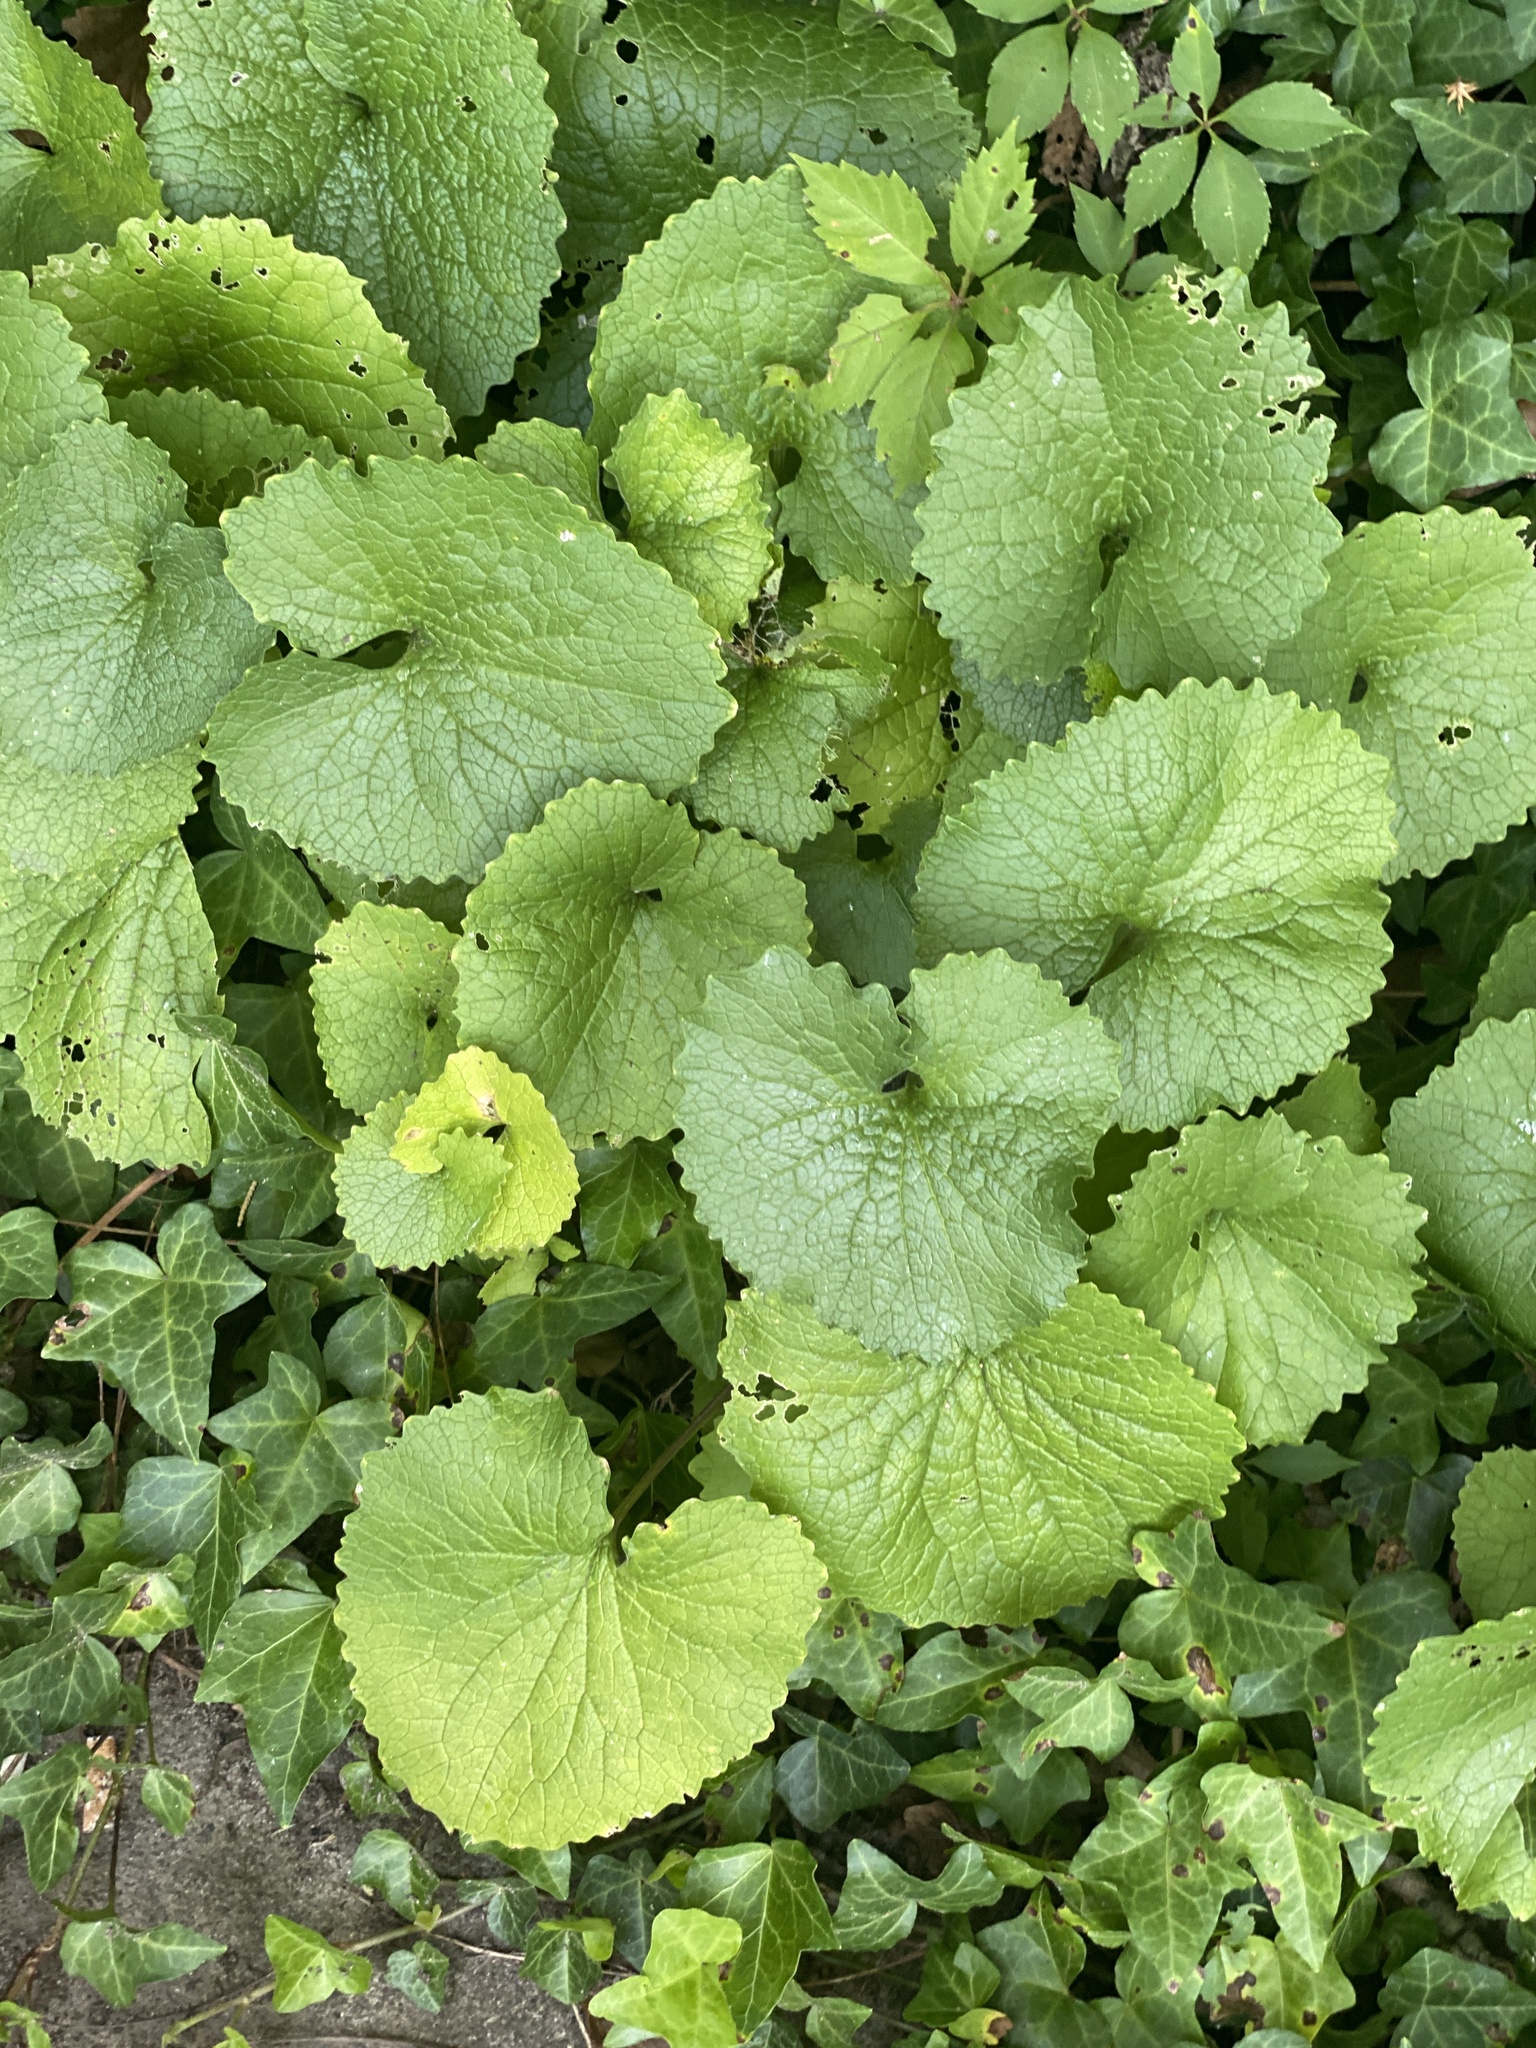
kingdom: Plantae
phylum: Tracheophyta
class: Magnoliopsida
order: Brassicales
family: Brassicaceae
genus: Alliaria
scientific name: Alliaria petiolata
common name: Garlic mustard
